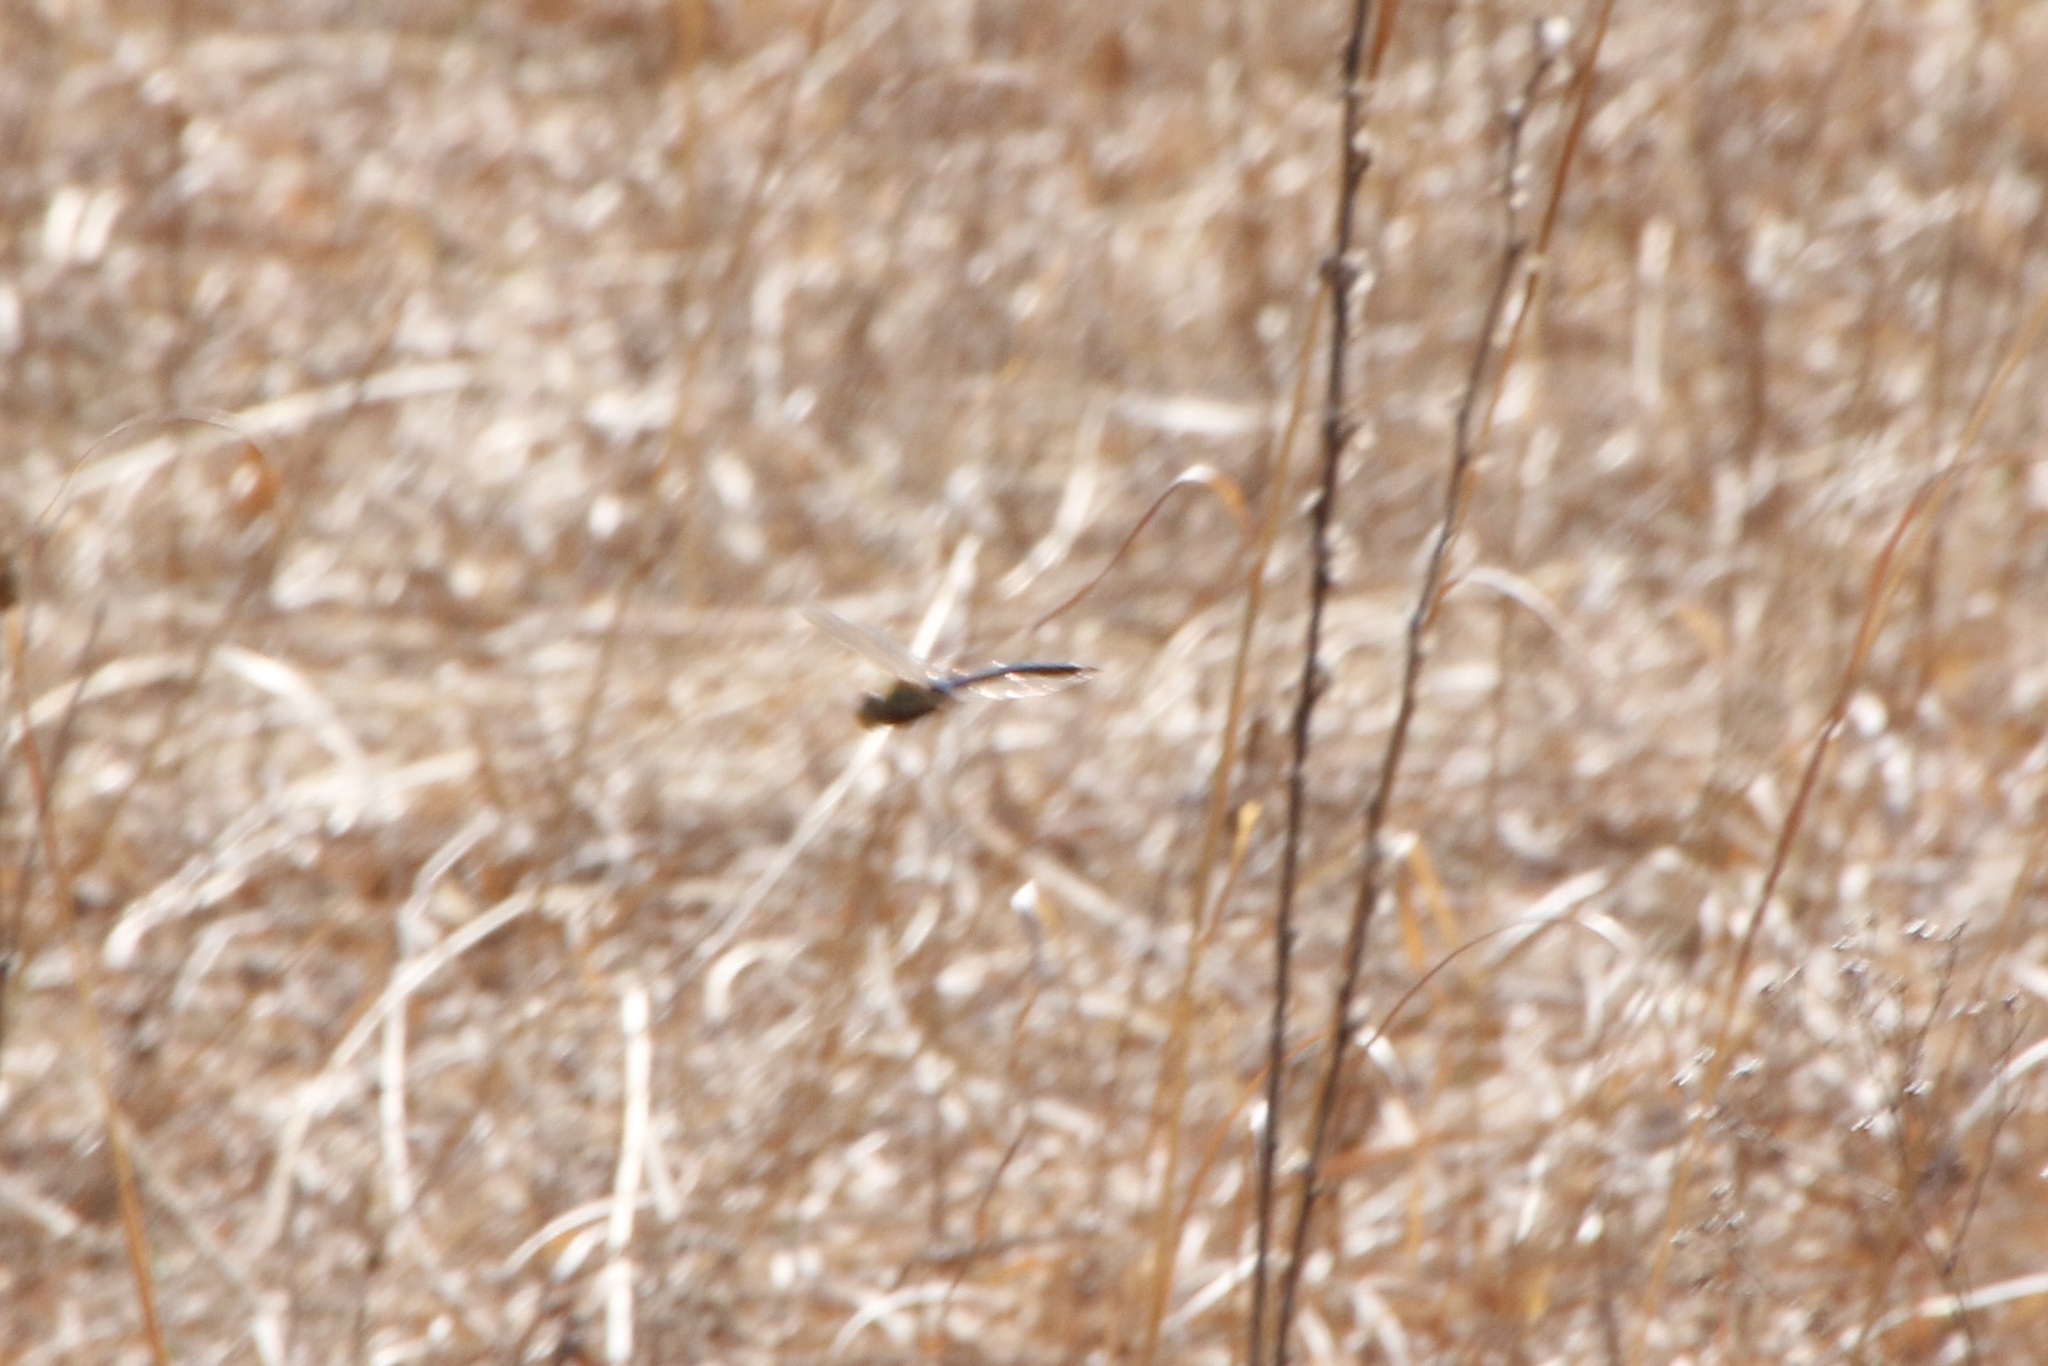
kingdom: Animalia
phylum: Arthropoda
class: Insecta
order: Odonata
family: Aeshnidae
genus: Anax
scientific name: Anax junius
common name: Common green darner
